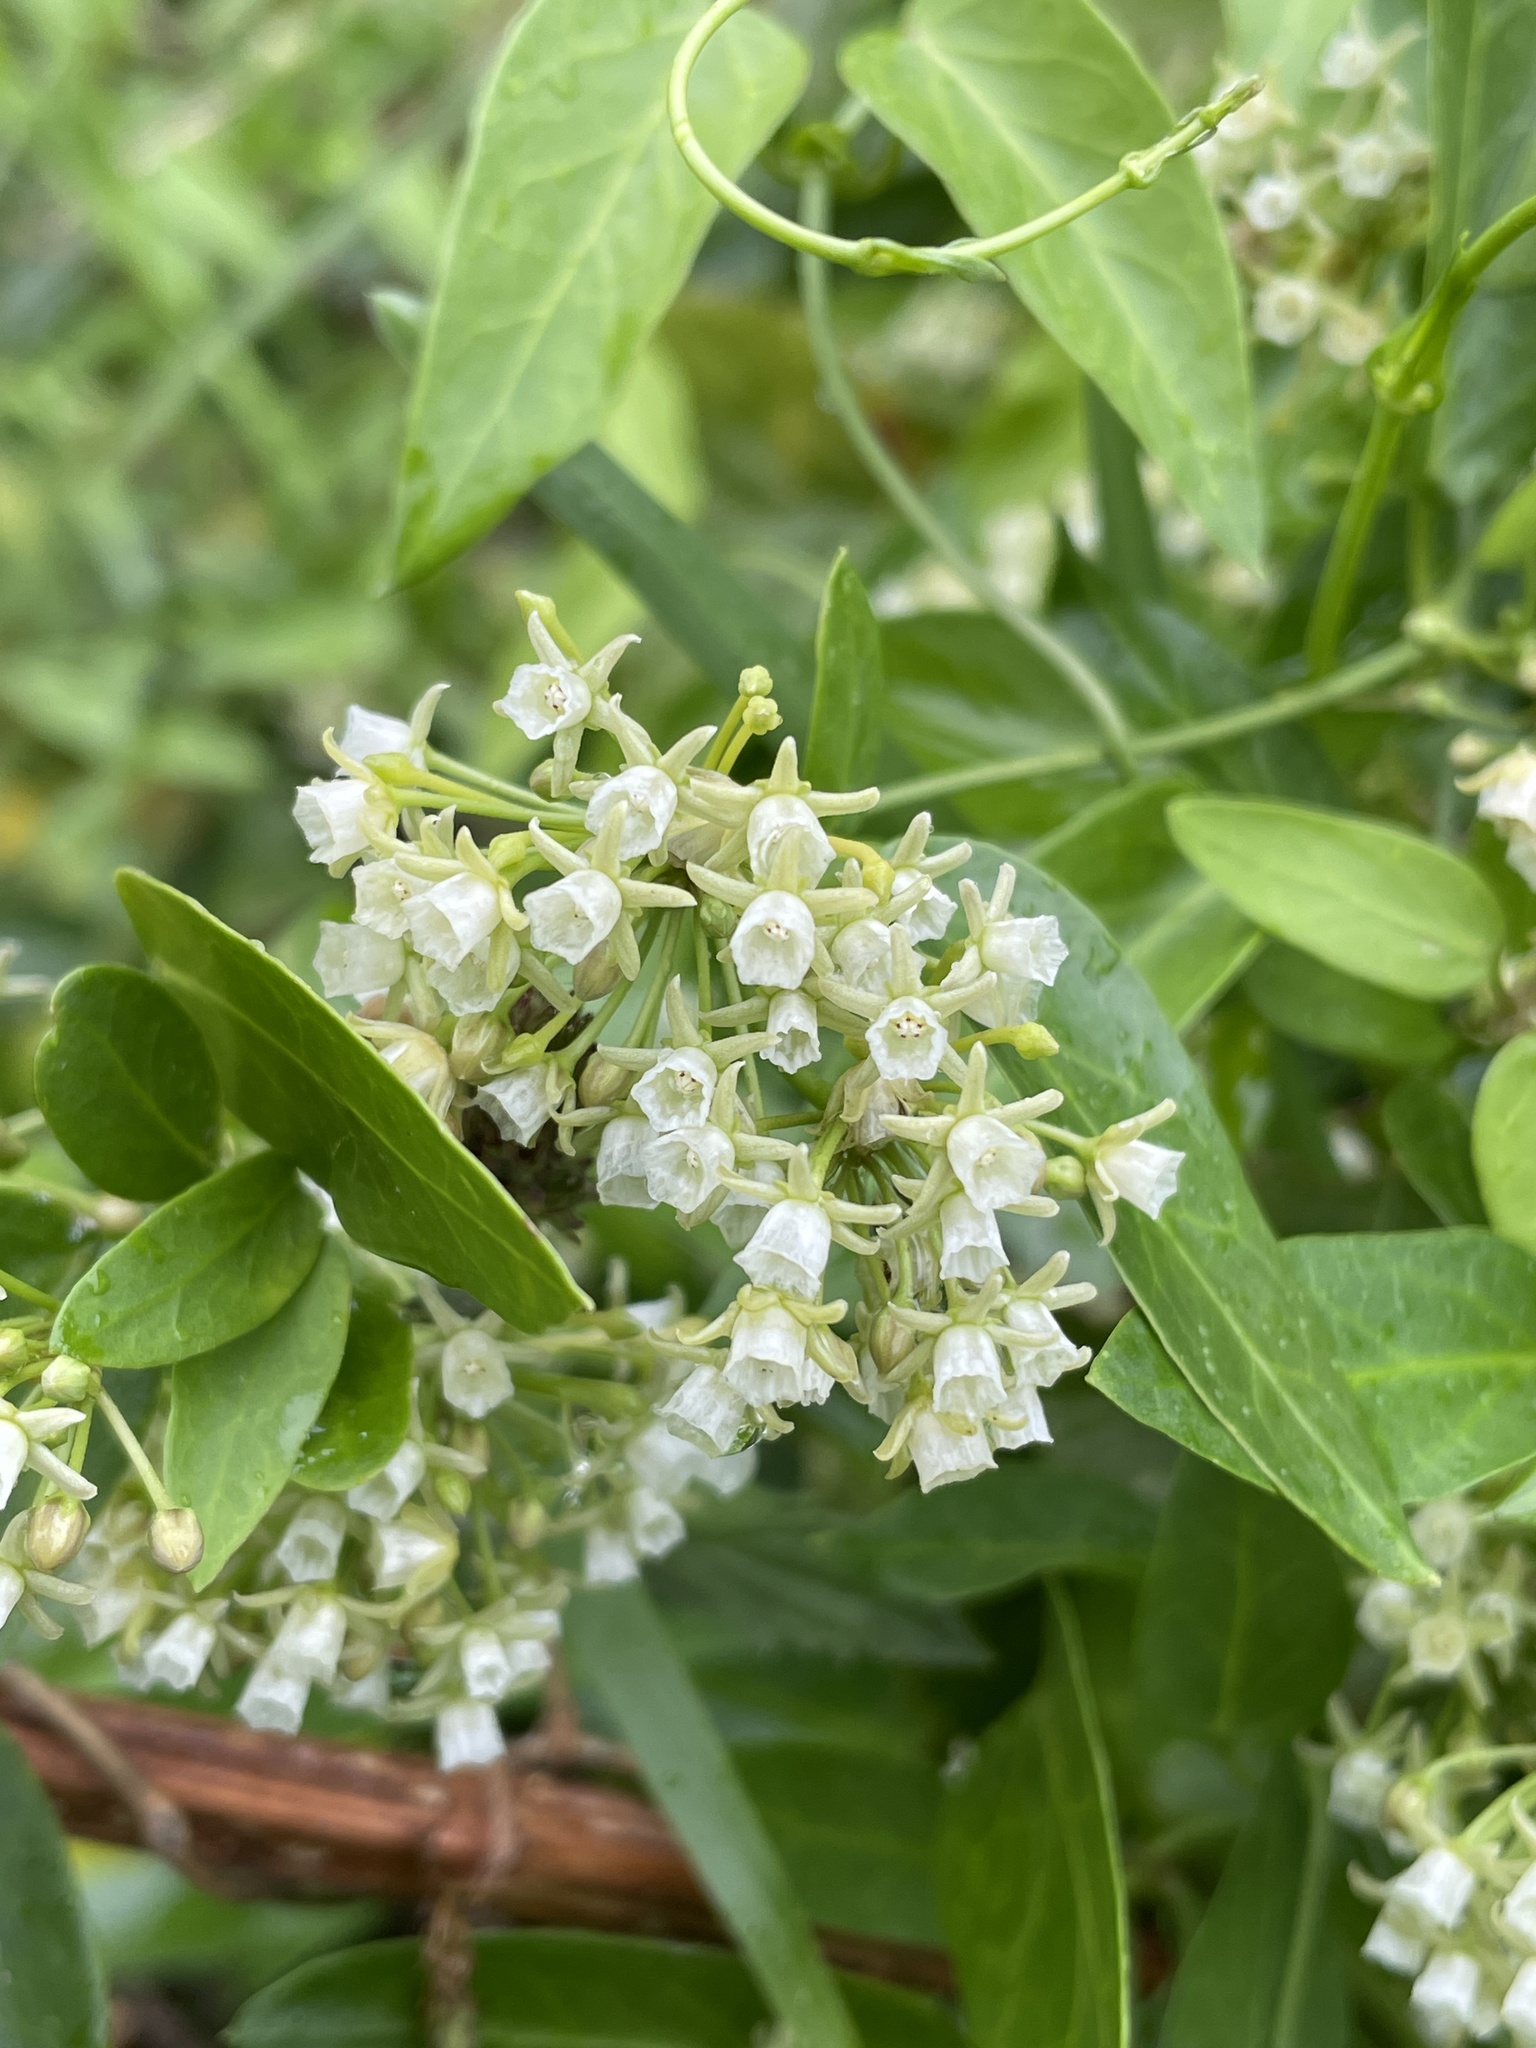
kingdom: Plantae
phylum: Tracheophyta
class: Magnoliopsida
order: Gentianales
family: Apocynaceae
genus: Cynanchum
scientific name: Cynanchum ellipticum
